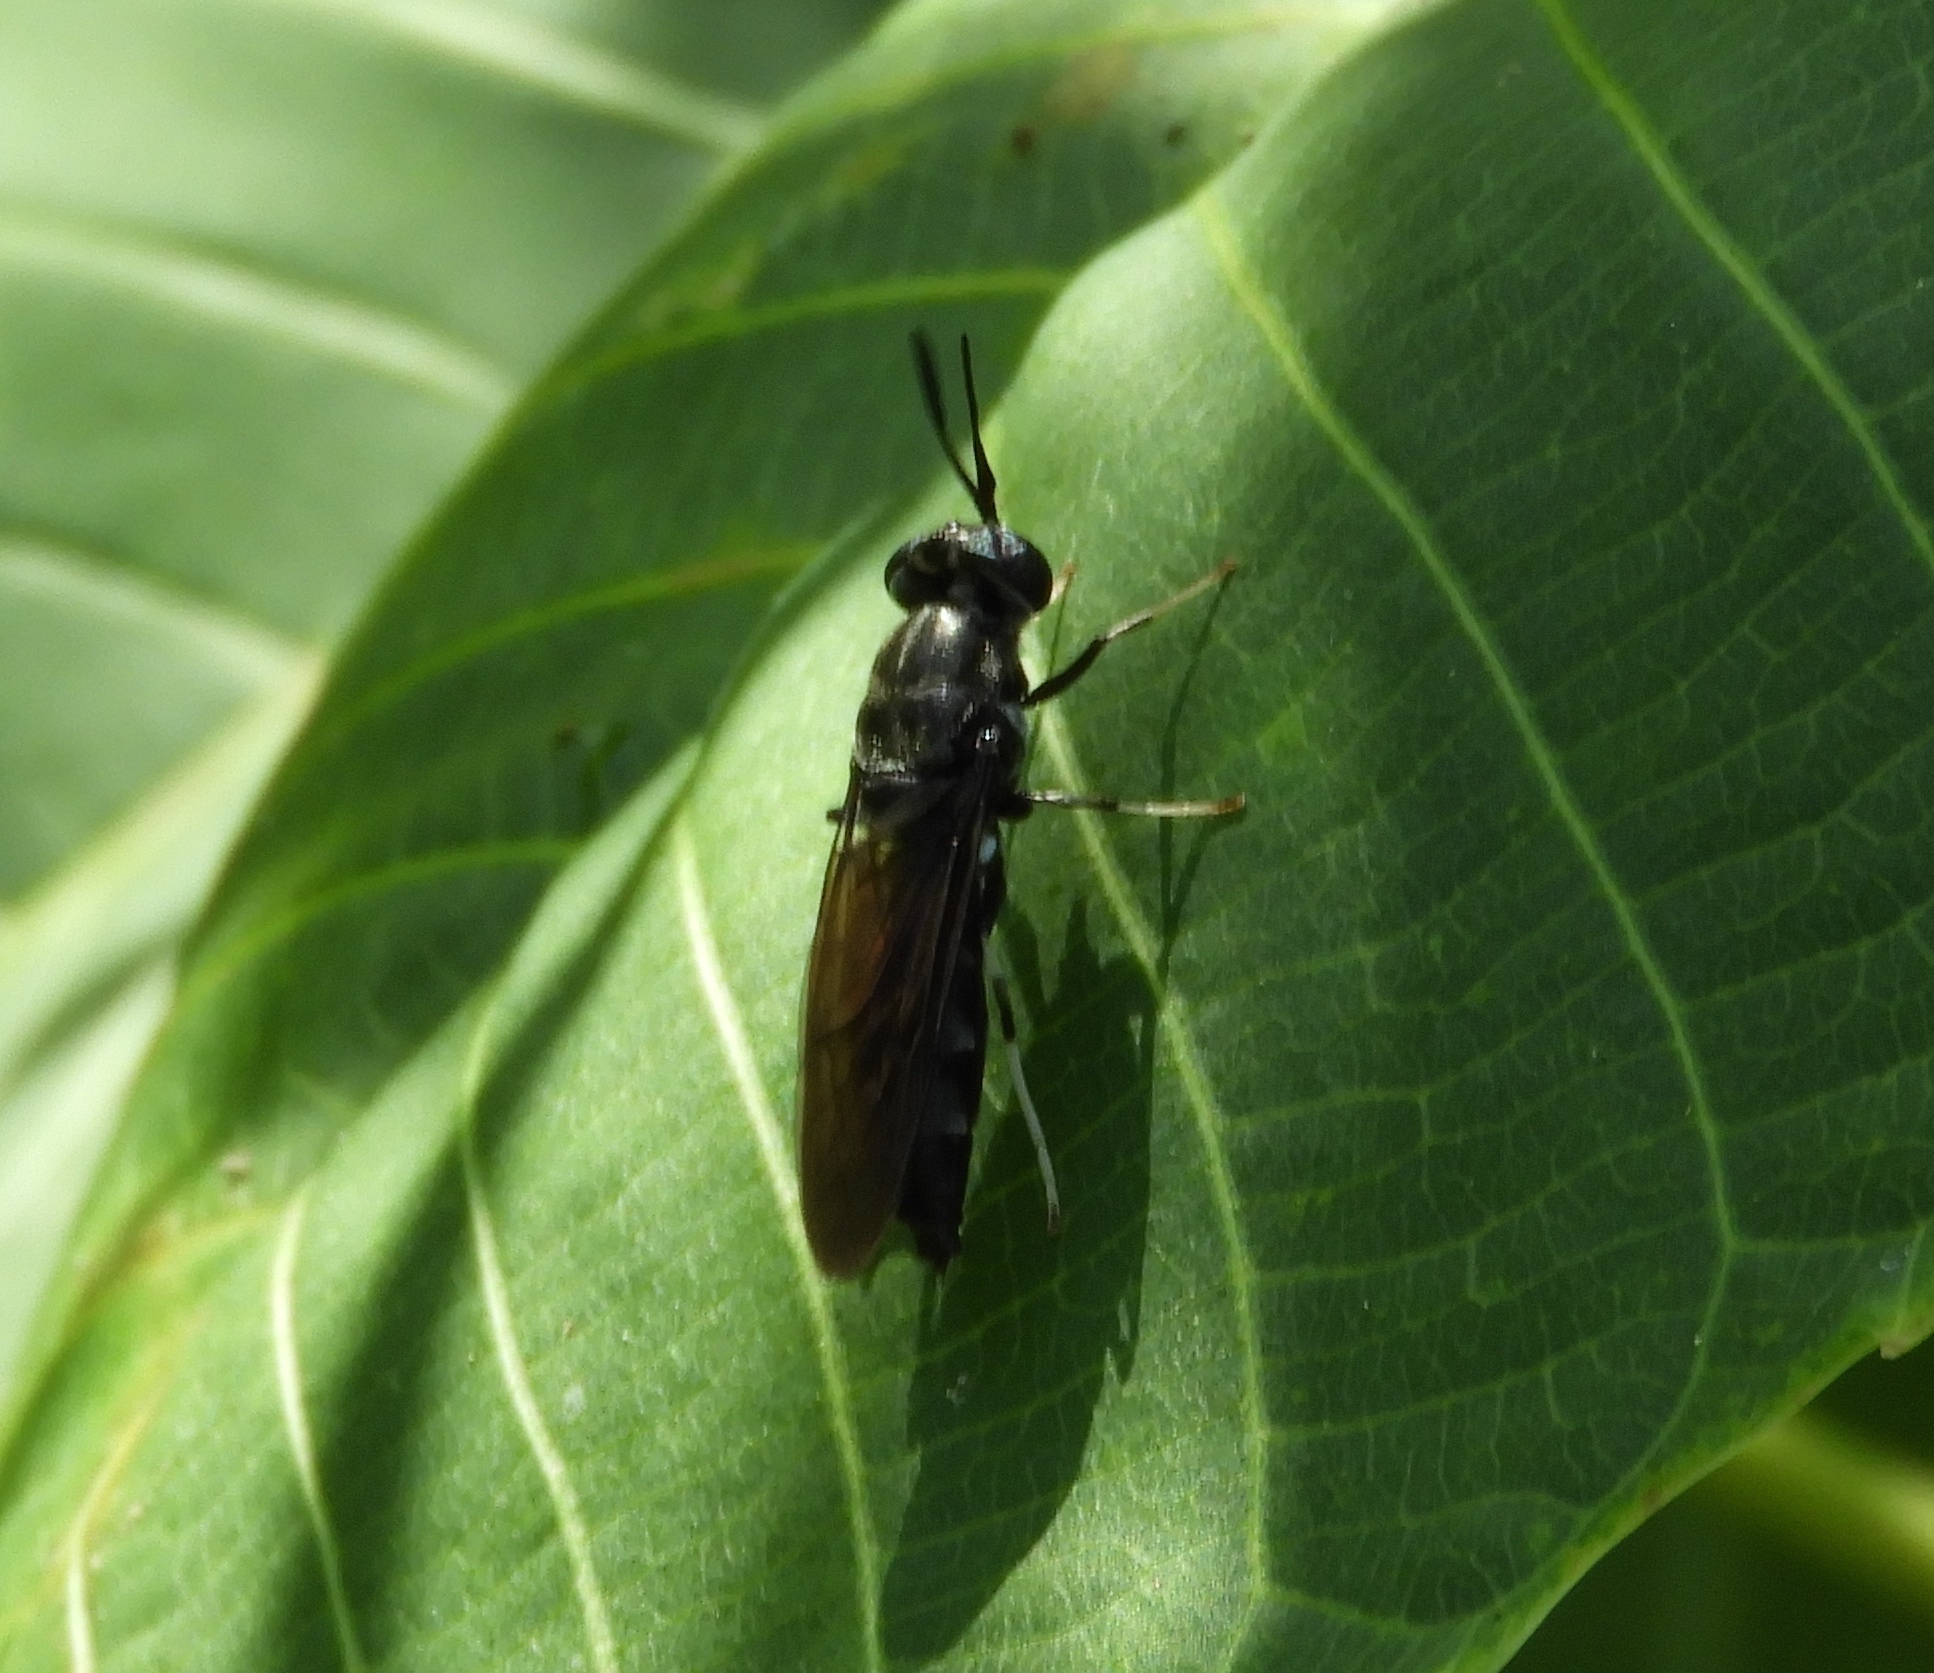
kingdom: Animalia
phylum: Arthropoda
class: Insecta
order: Diptera
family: Stratiomyidae
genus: Hermetia
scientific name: Hermetia illucens
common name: Black soldier fly
